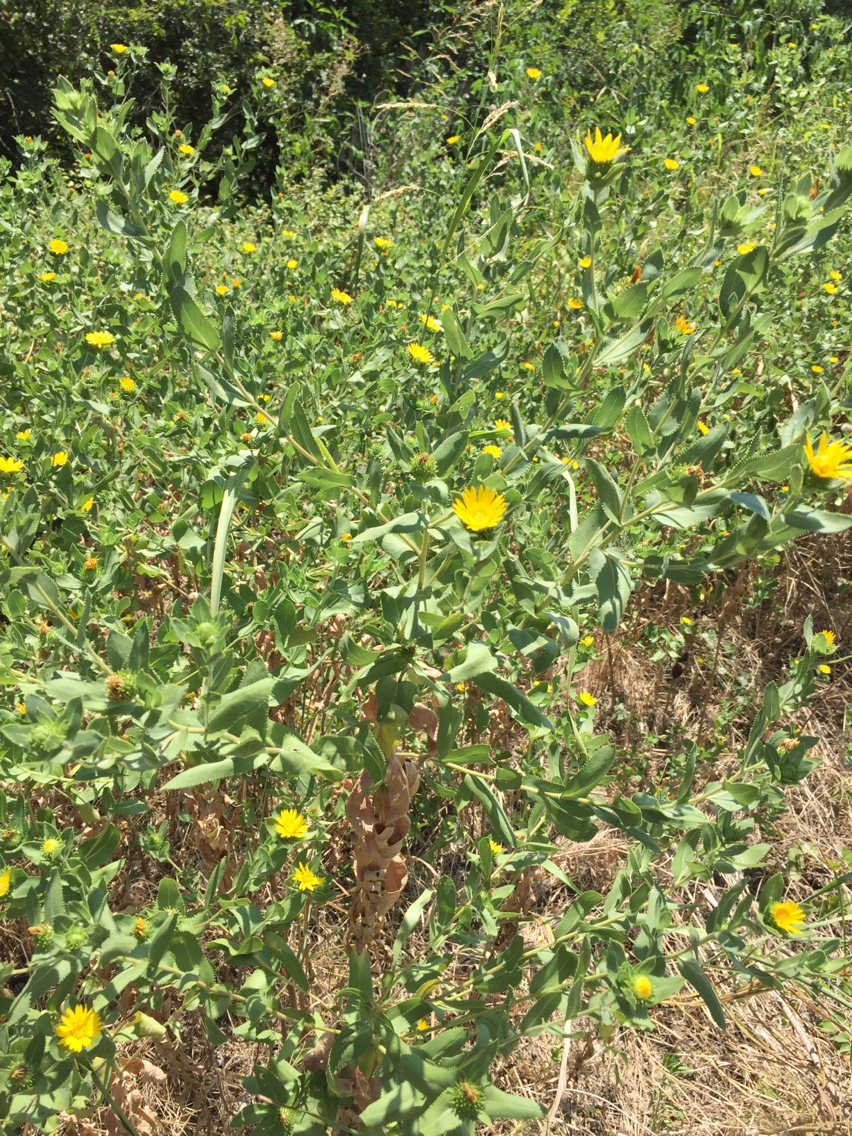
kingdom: Plantae
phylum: Tracheophyta
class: Magnoliopsida
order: Asterales
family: Asteraceae
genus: Grindelia
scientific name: Grindelia adenodonta
